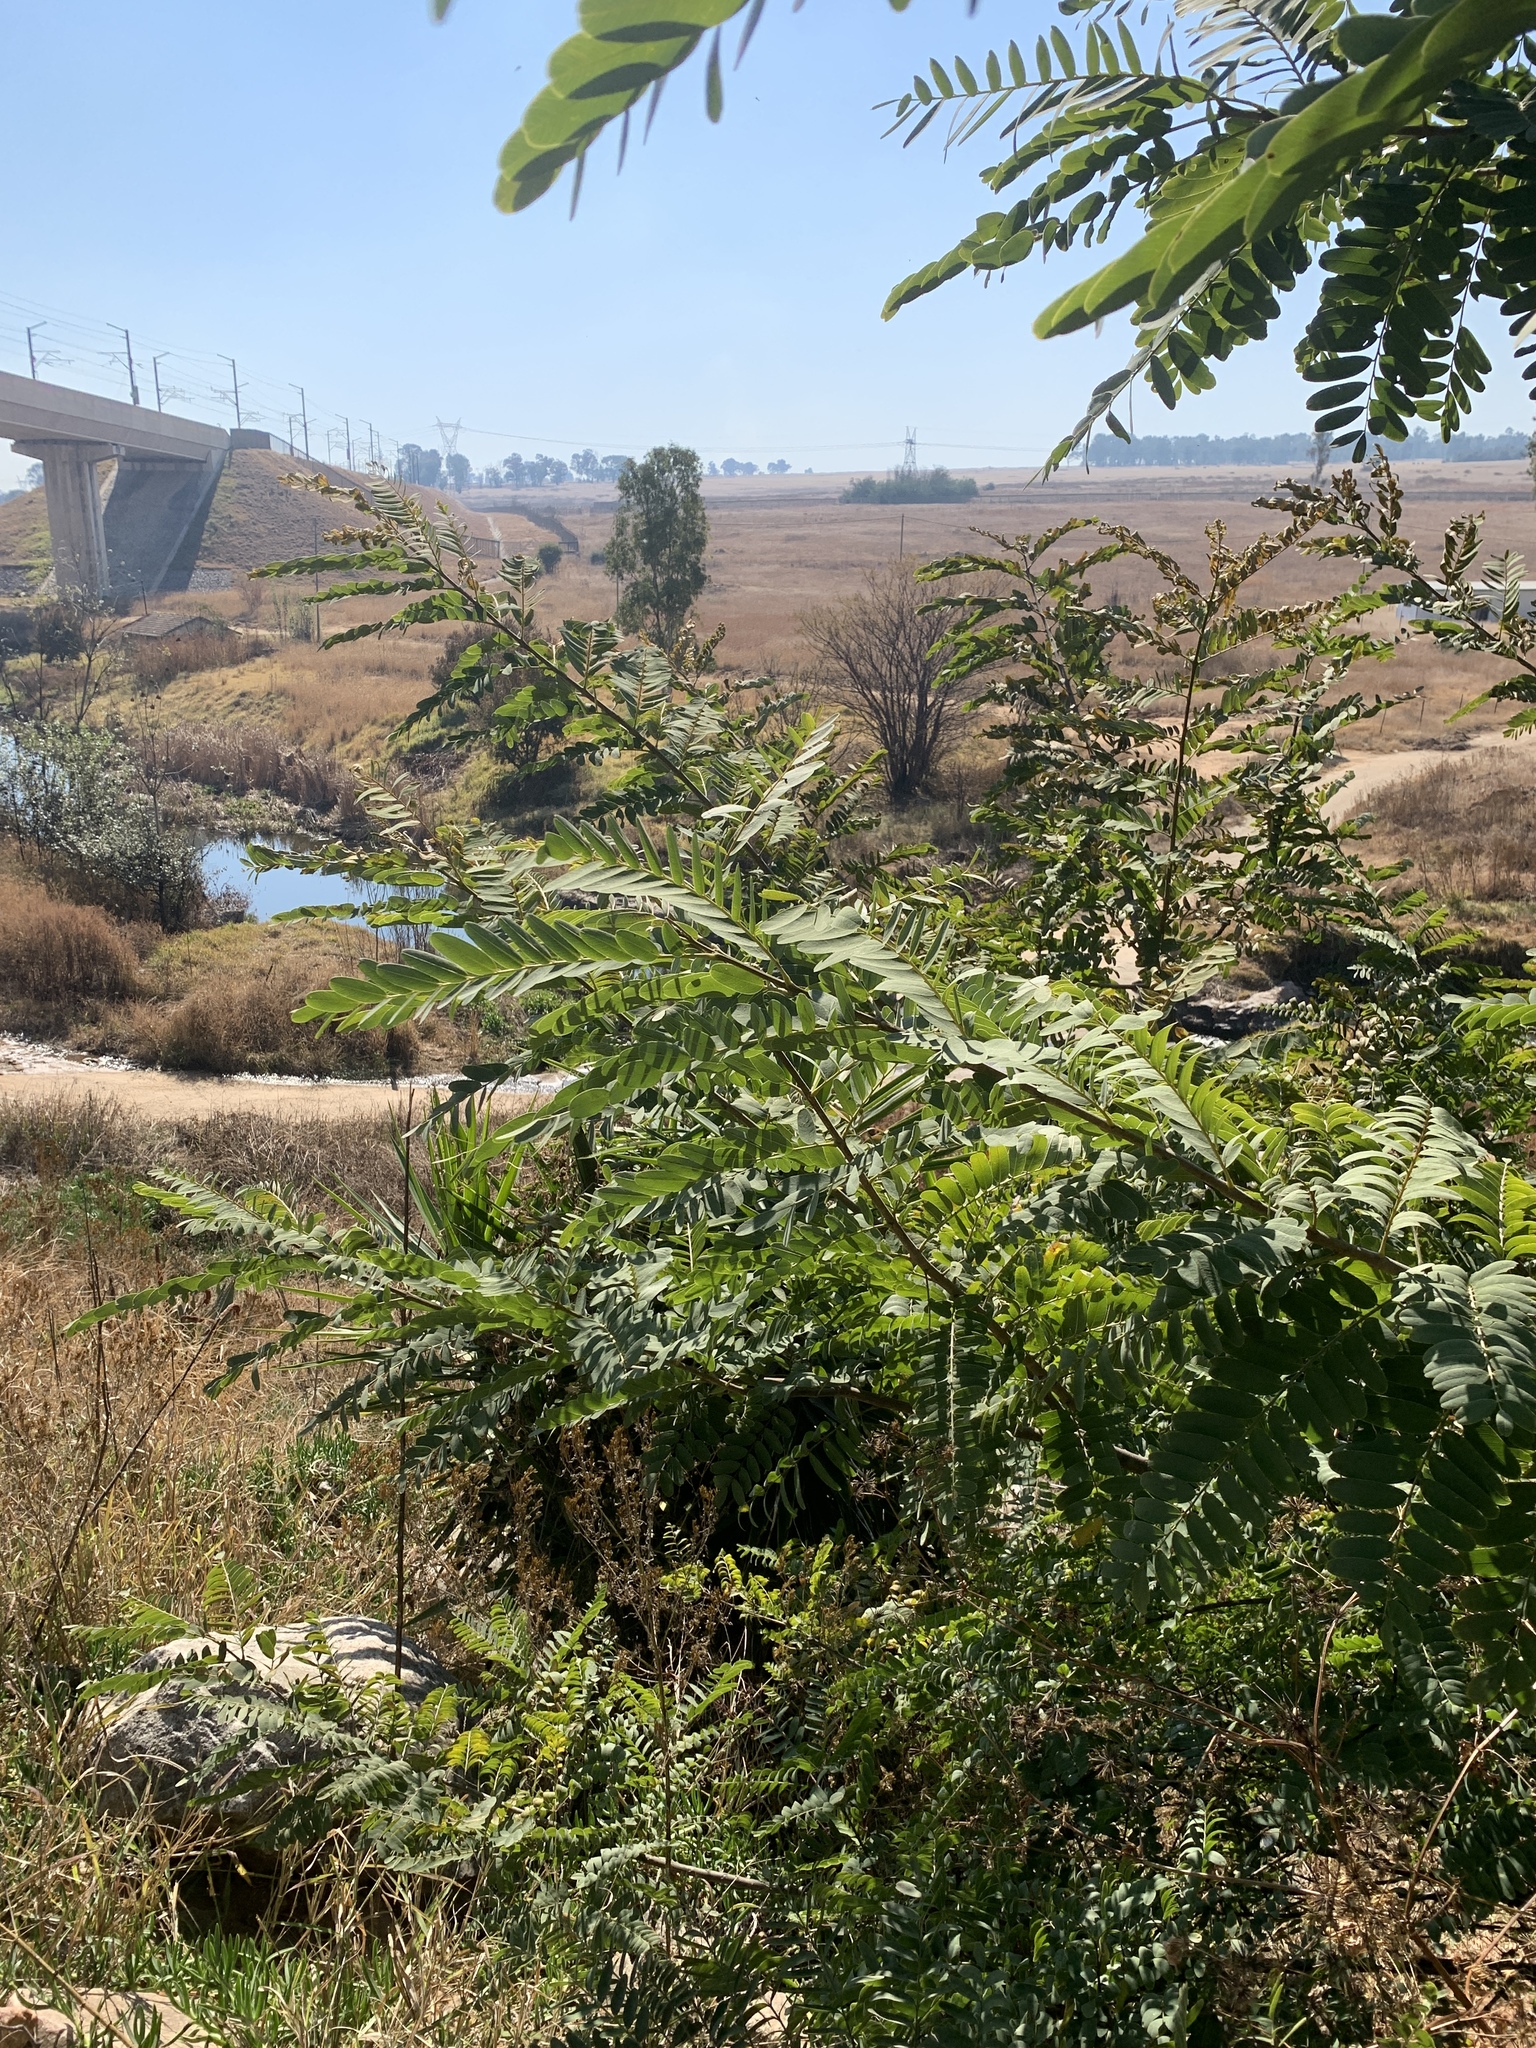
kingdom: Plantae
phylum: Tracheophyta
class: Magnoliopsida
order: Fabales
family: Fabaceae
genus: Tipuana
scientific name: Tipuana tipu
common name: Tiputree
